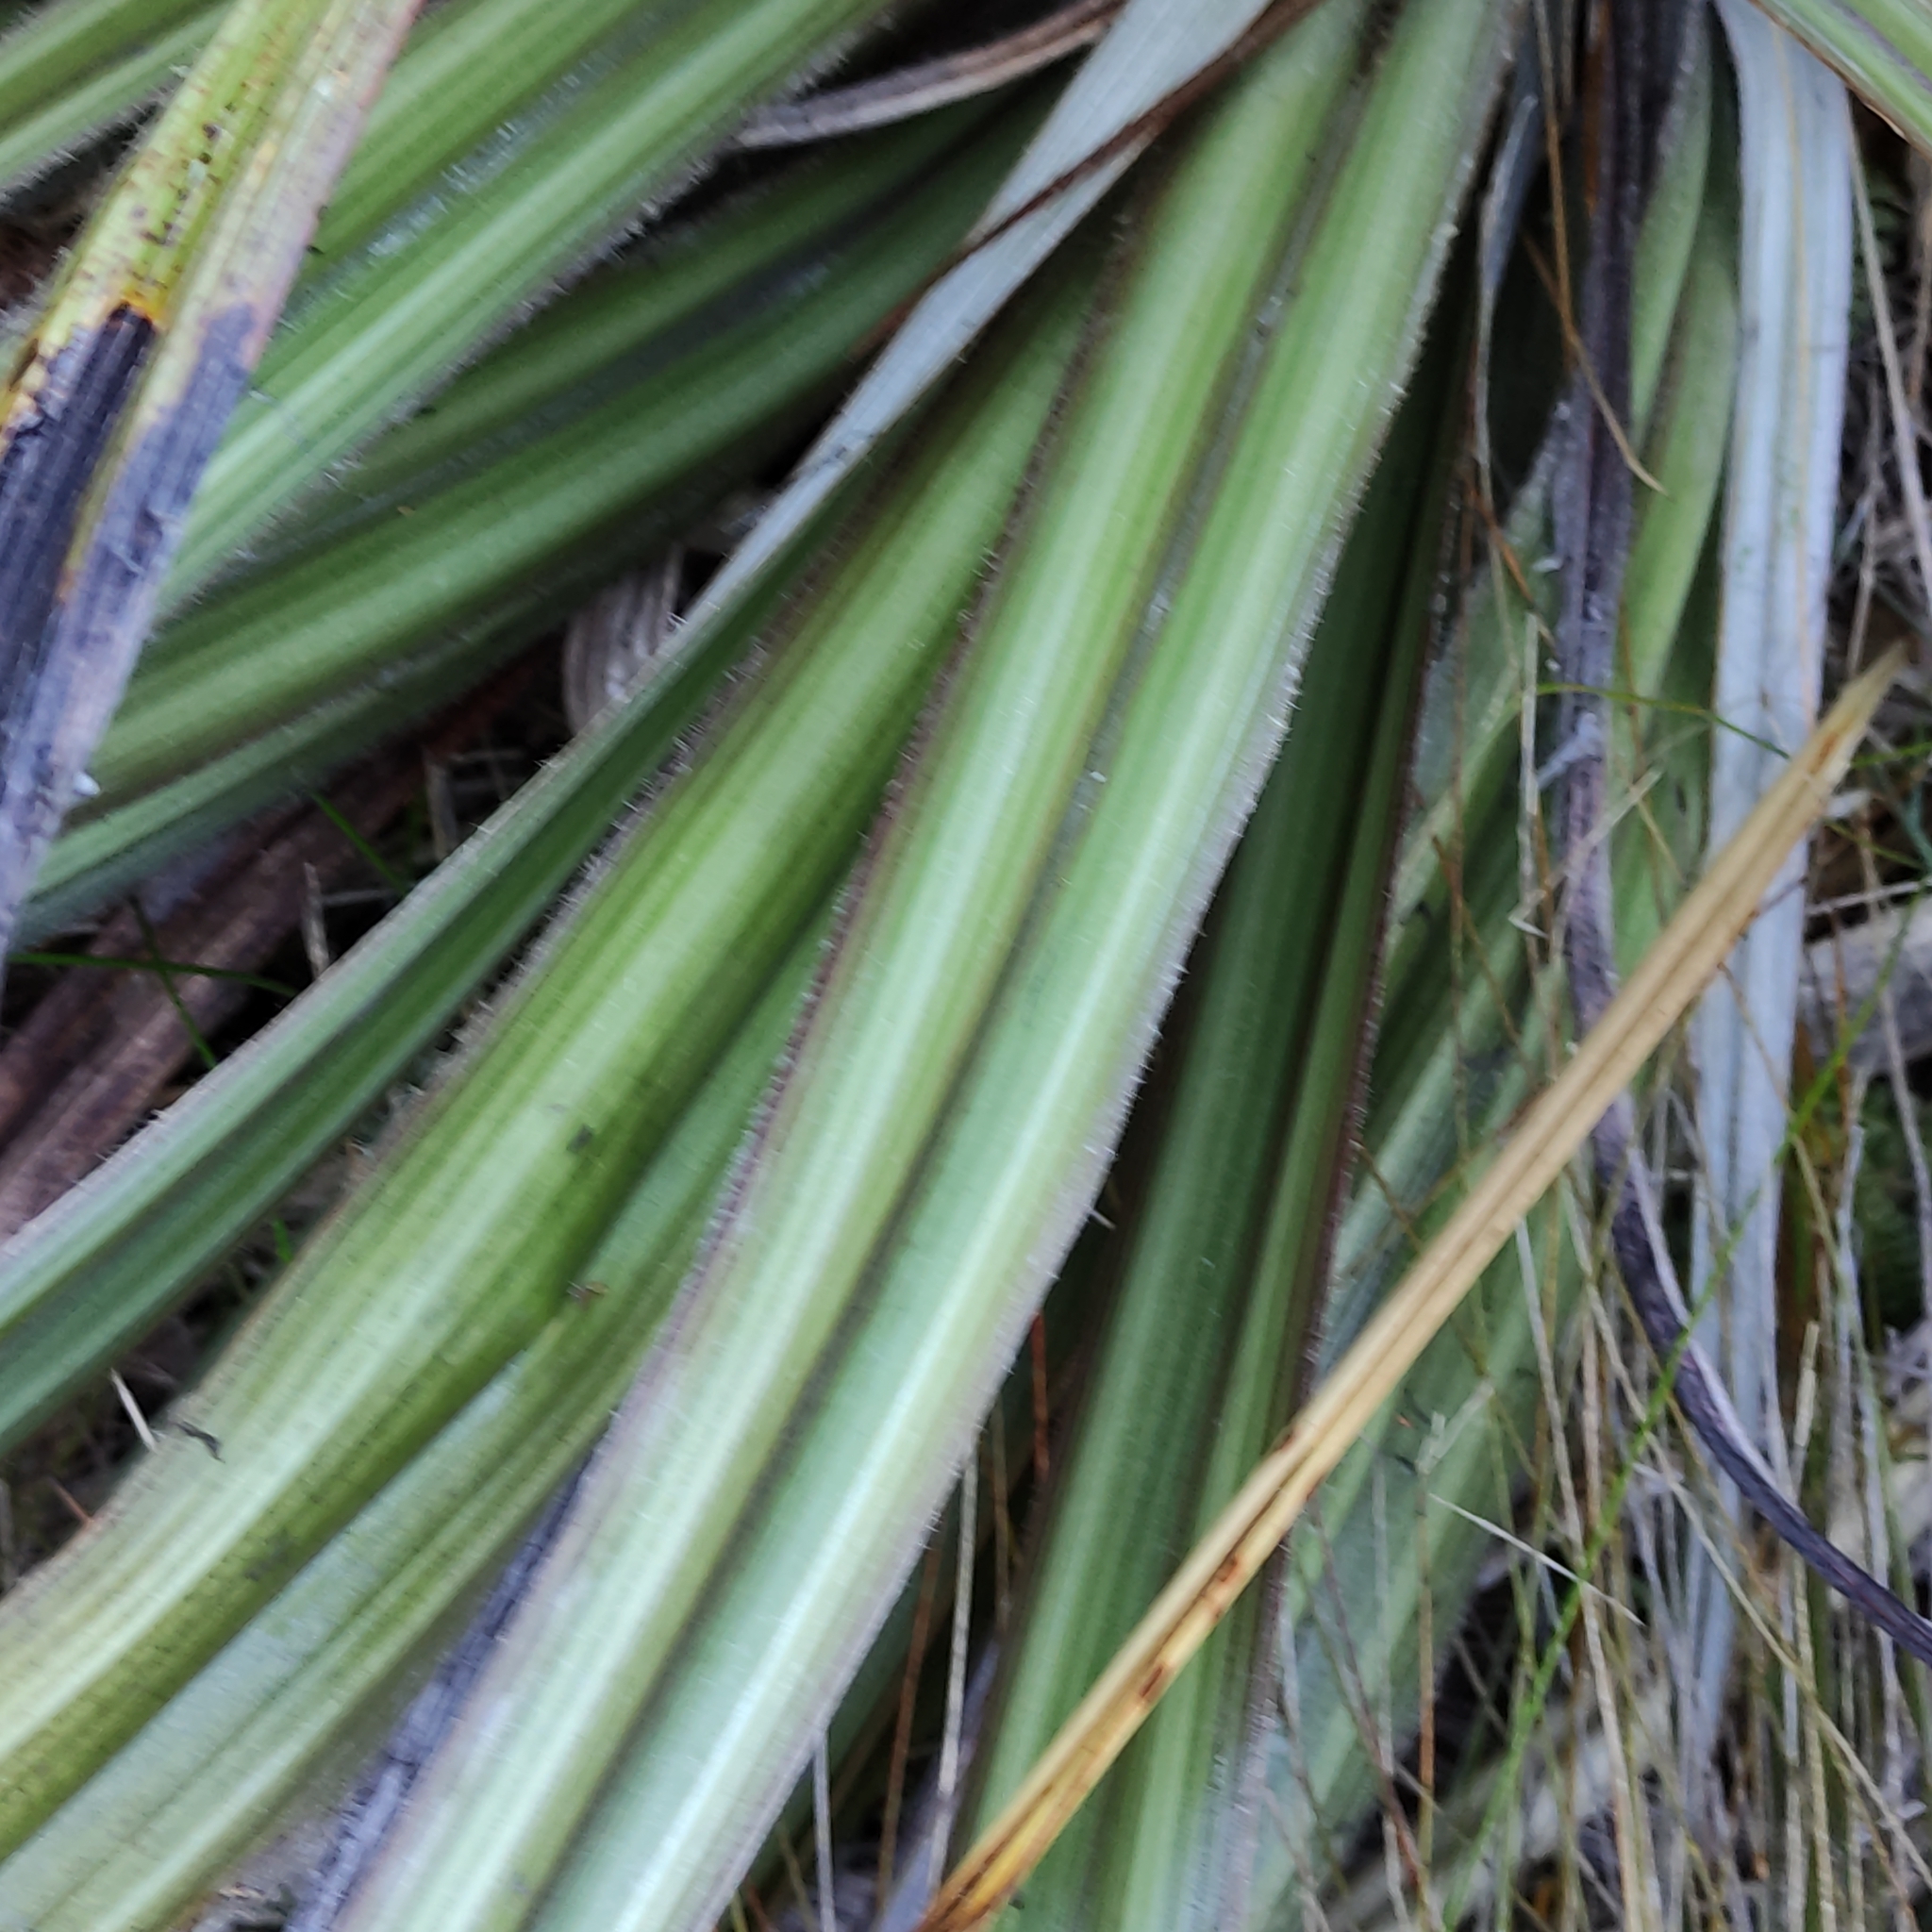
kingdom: Plantae
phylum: Tracheophyta
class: Liliopsida
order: Asparagales
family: Asteliaceae
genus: Astelia
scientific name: Astelia nervosa
